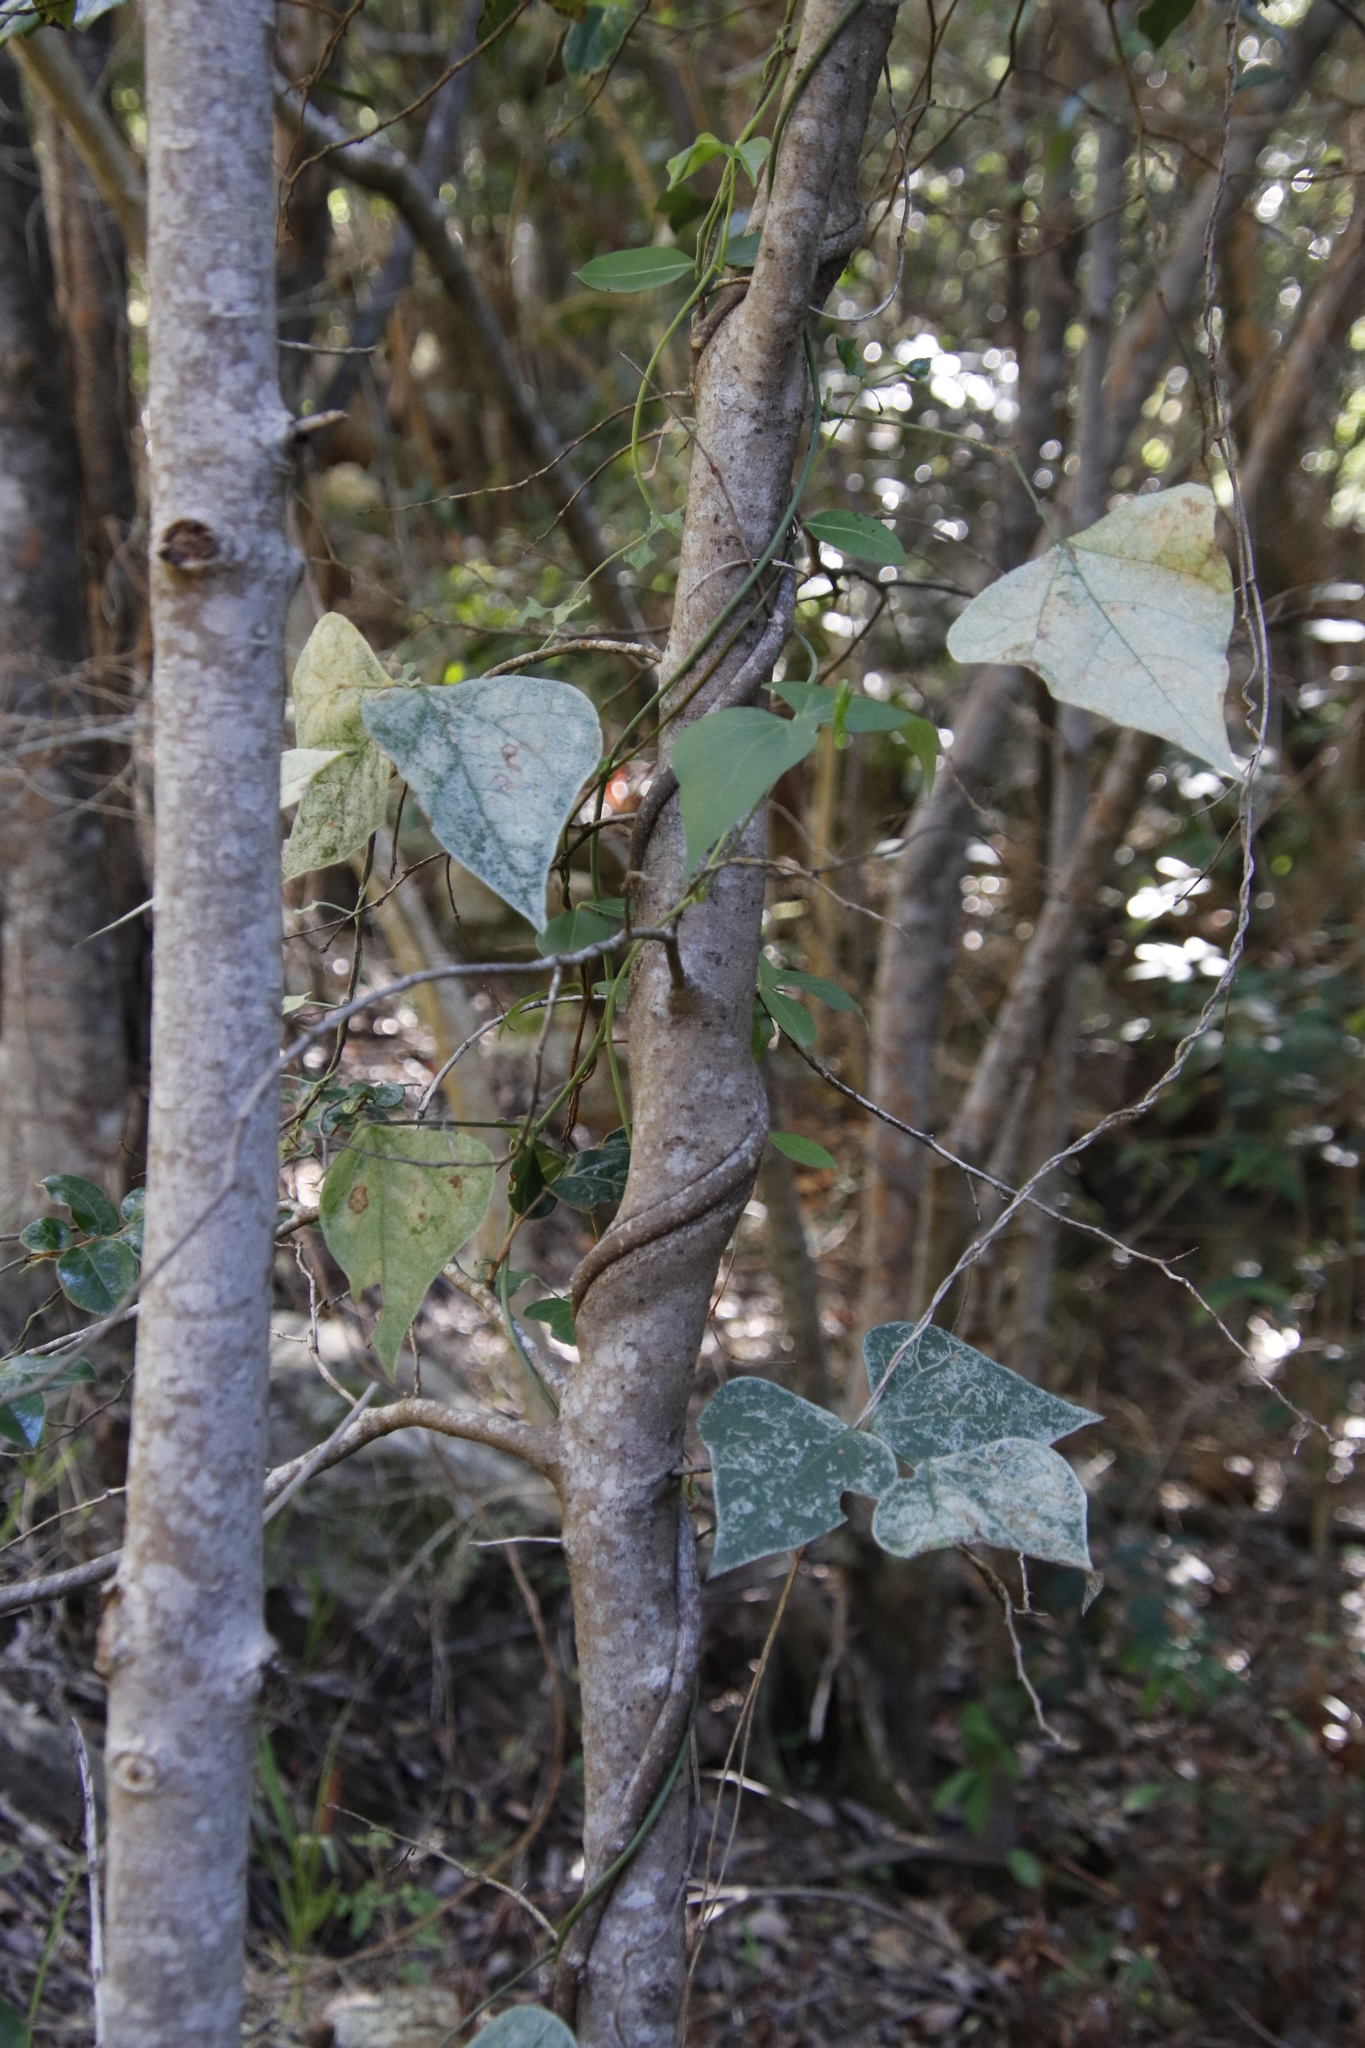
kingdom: Plantae
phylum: Tracheophyta
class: Magnoliopsida
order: Fabales
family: Fabaceae
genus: Dipogon
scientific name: Dipogon lignosus
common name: Okie bean
